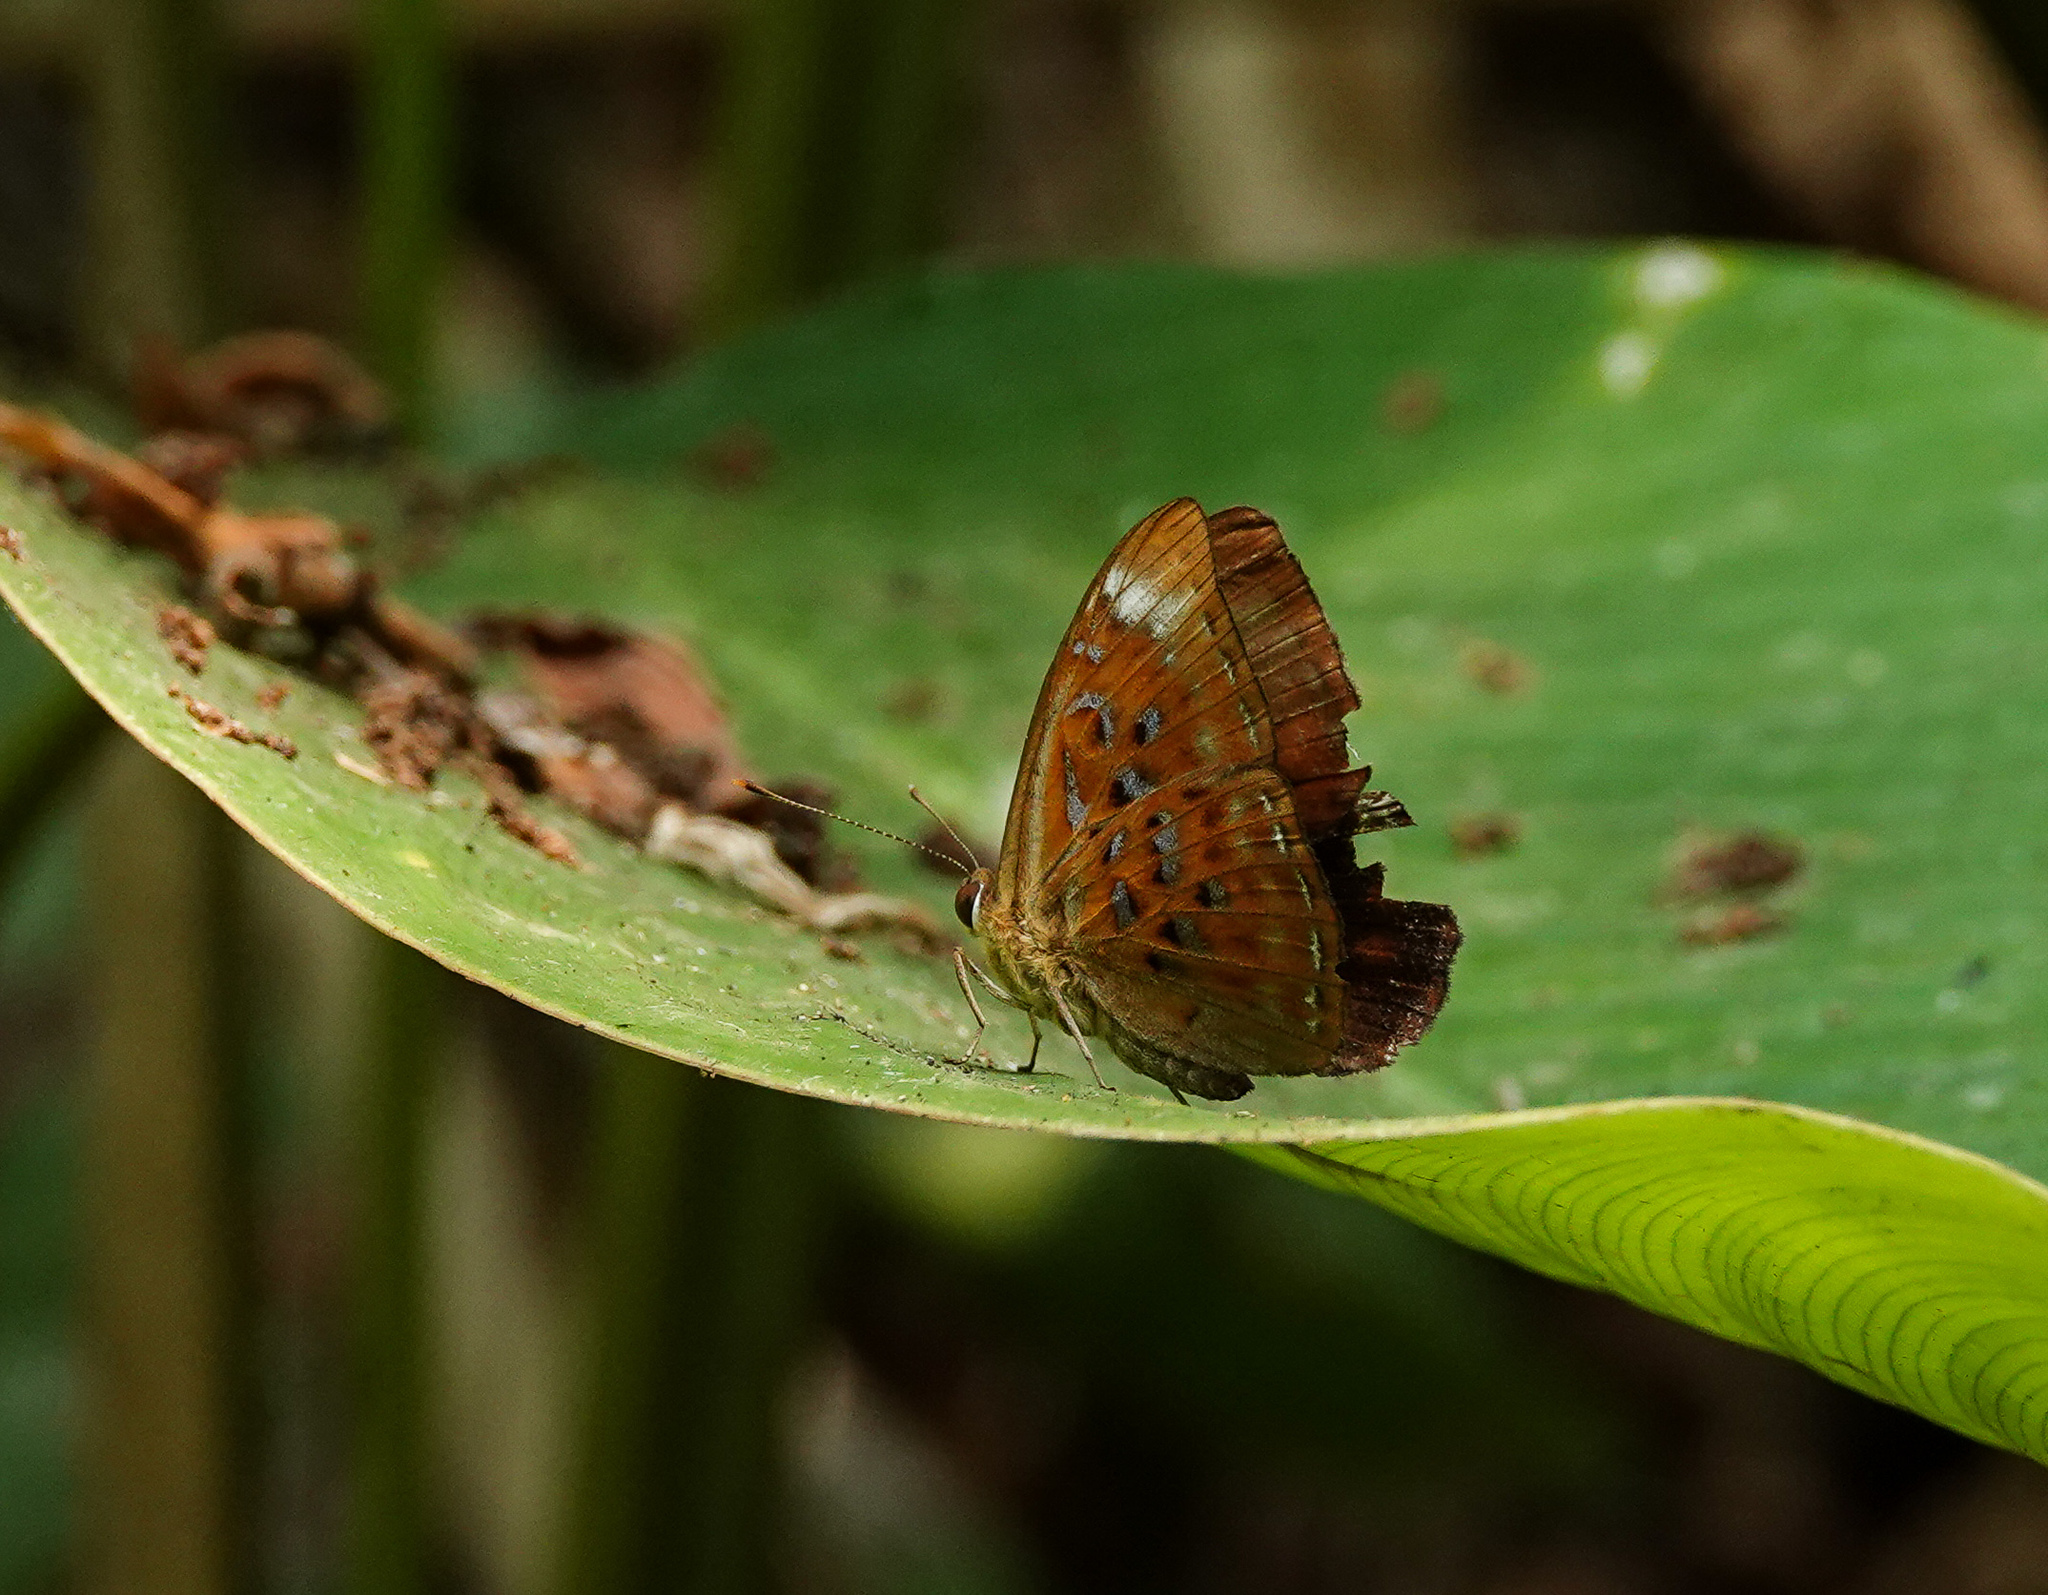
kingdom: Animalia
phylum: Arthropoda
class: Insecta
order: Lepidoptera
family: Erebidae
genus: Dysschema
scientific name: Dysschema
